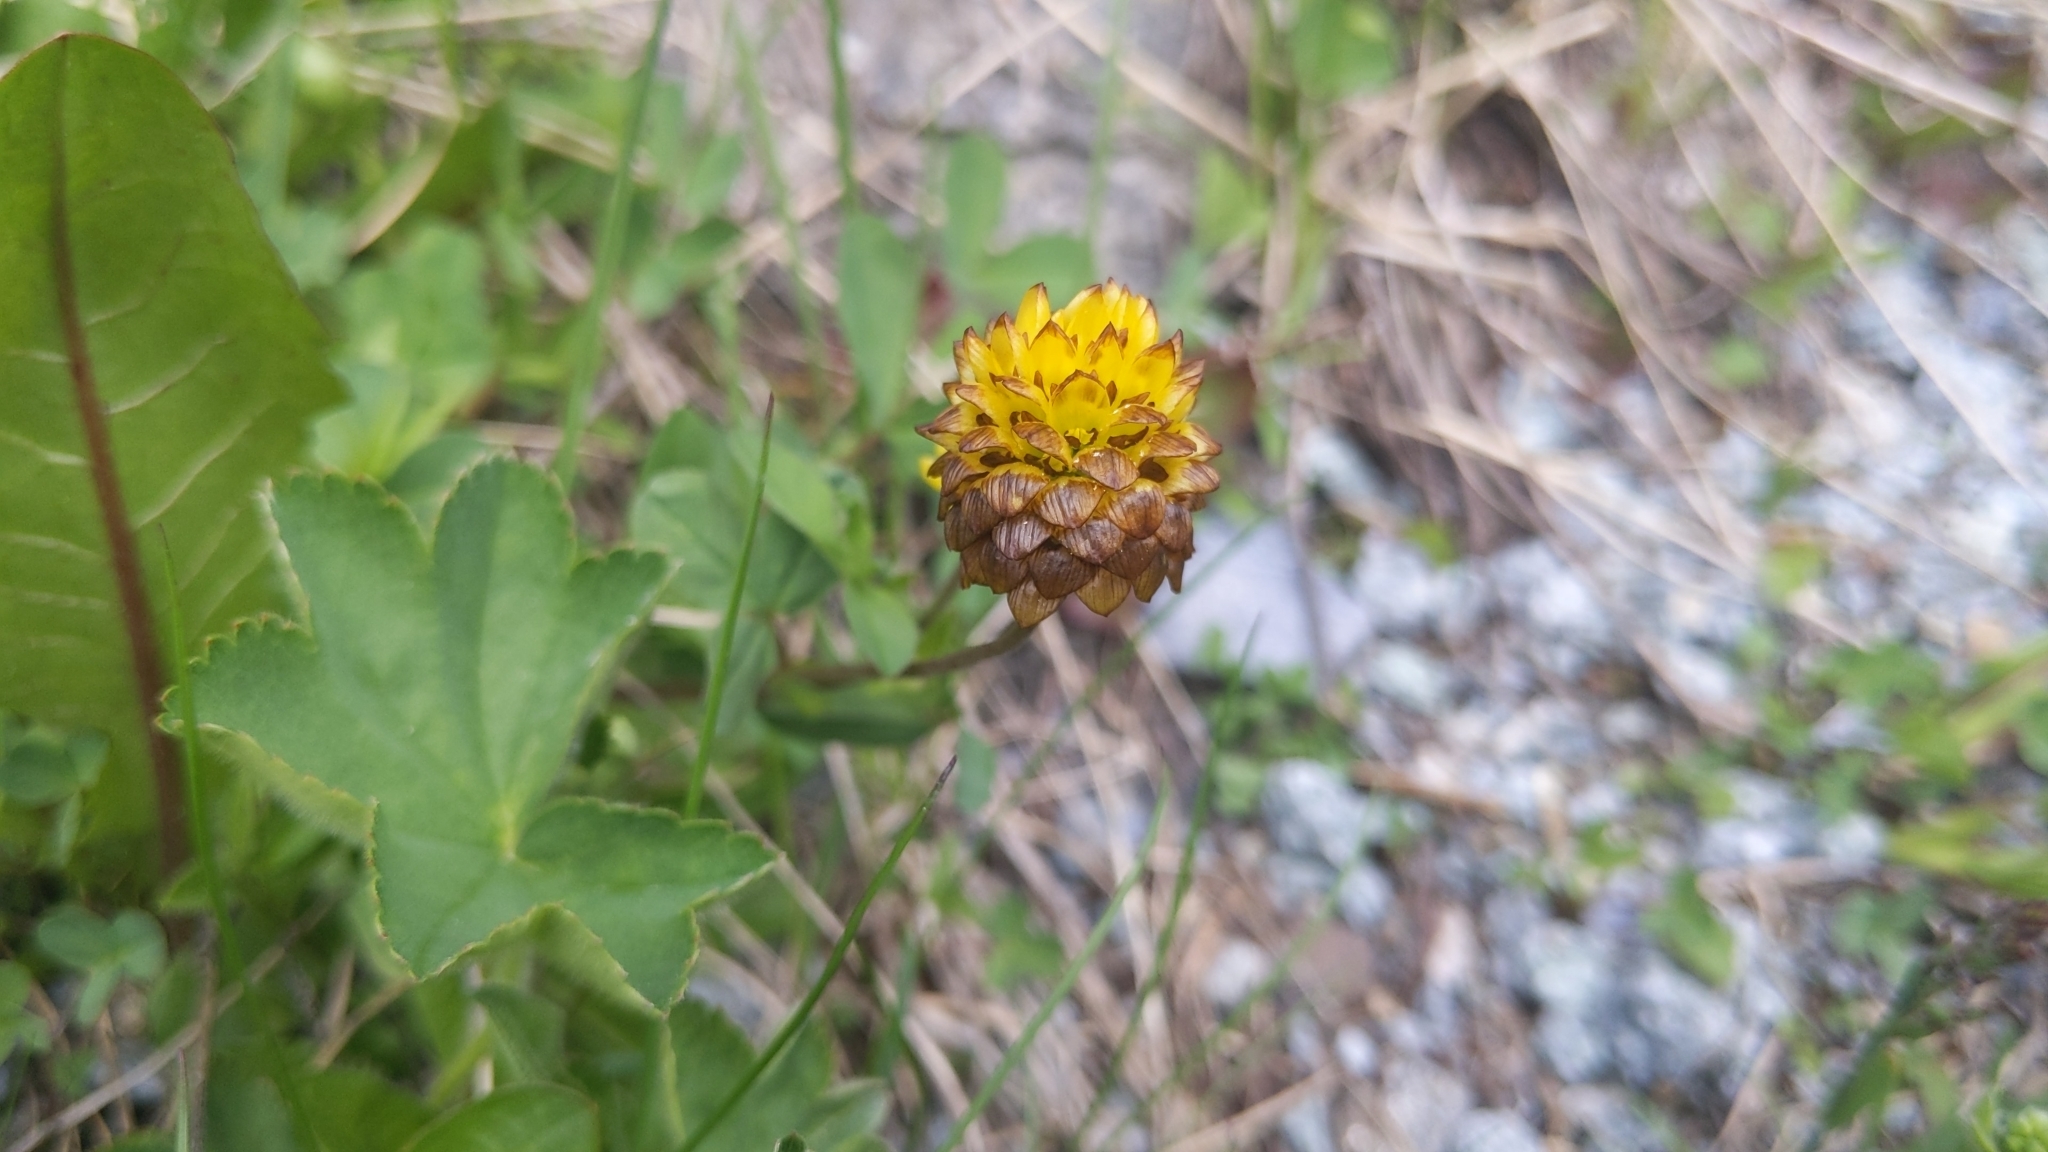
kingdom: Plantae
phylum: Tracheophyta
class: Magnoliopsida
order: Fabales
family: Fabaceae
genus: Trifolium
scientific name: Trifolium badium
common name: Brown clover
